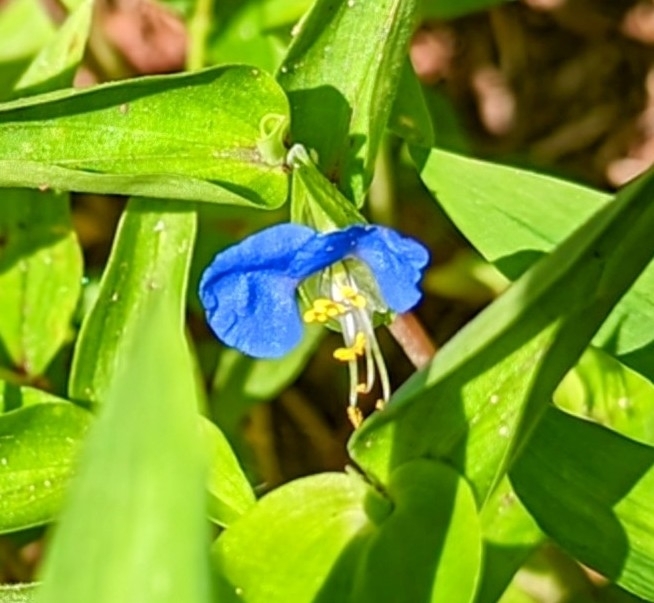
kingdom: Plantae
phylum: Tracheophyta
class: Liliopsida
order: Commelinales
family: Commelinaceae
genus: Commelina
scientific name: Commelina communis
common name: Asiatic dayflower
